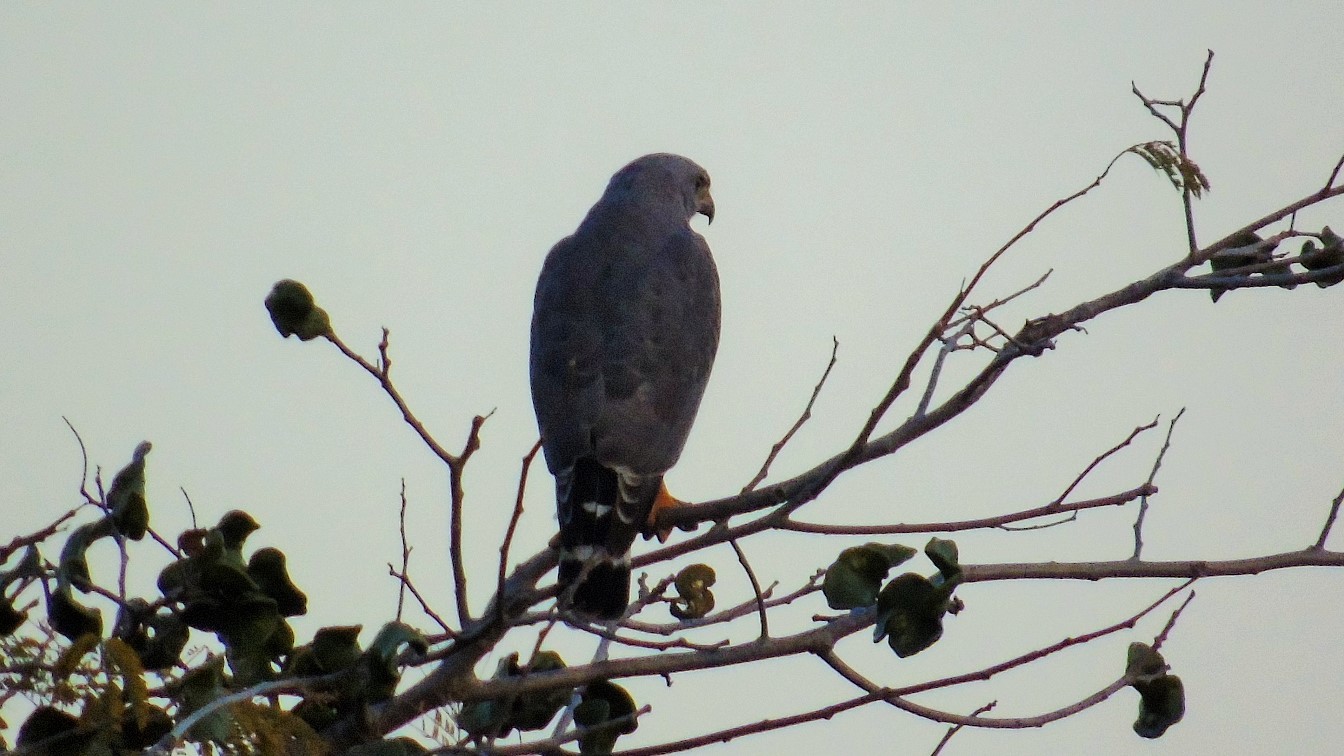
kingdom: Animalia
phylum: Chordata
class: Aves
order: Accipitriformes
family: Accipitridae
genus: Buteo
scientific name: Buteo nitidus
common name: Grey-lined hawk
